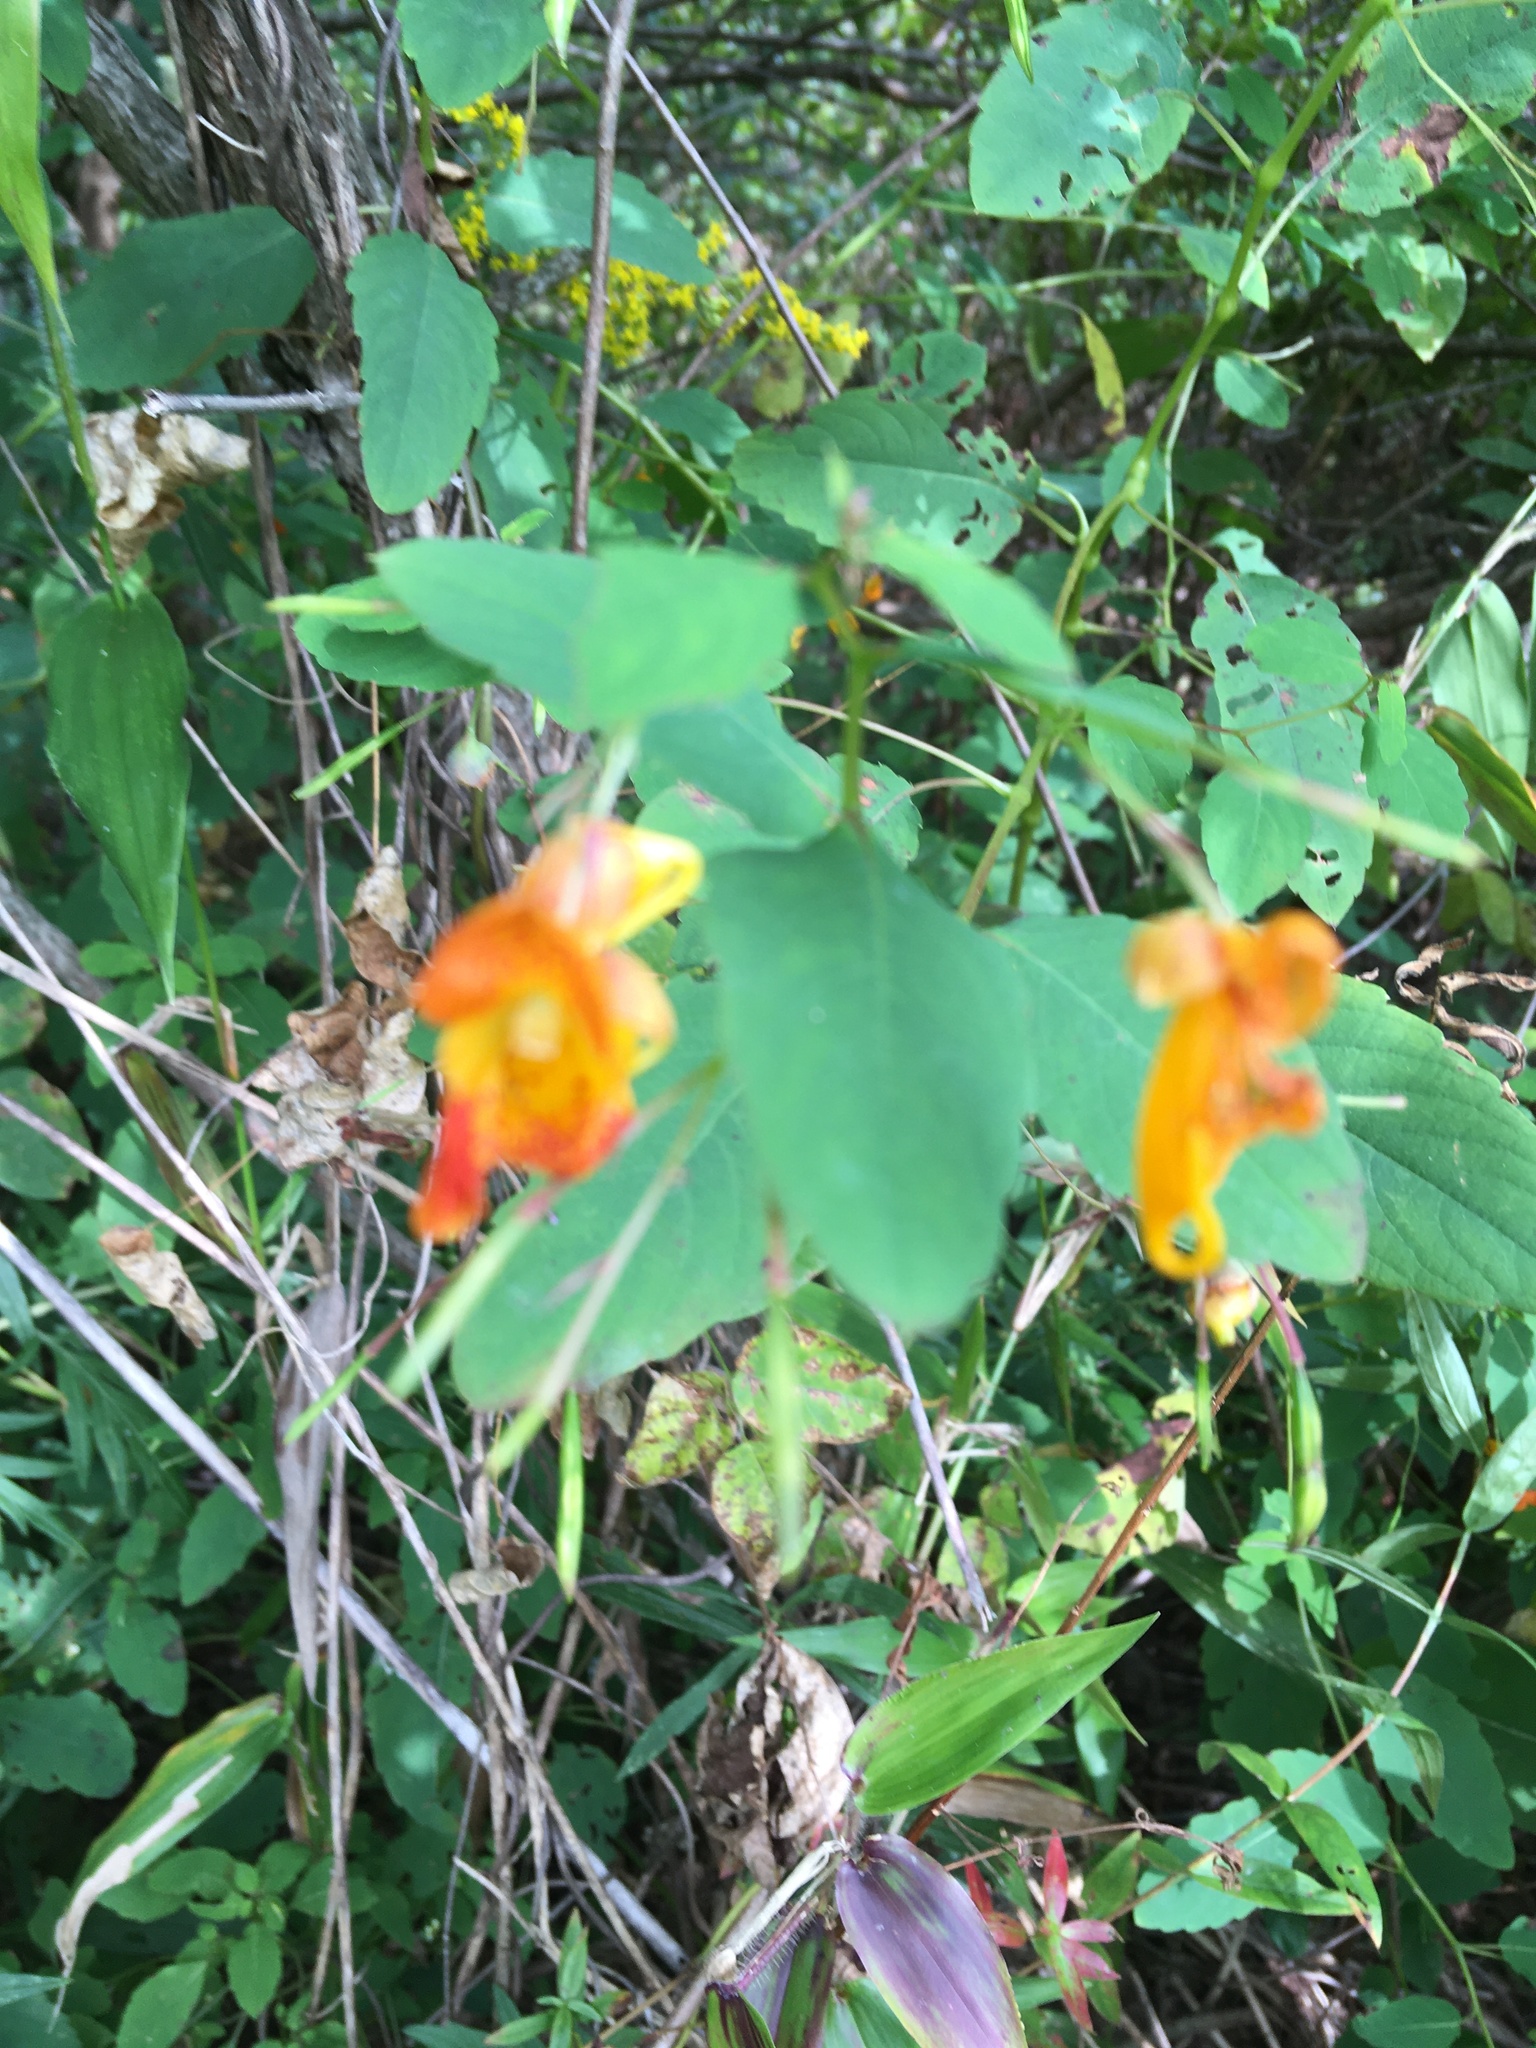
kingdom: Plantae
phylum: Tracheophyta
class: Magnoliopsida
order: Ericales
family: Balsaminaceae
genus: Impatiens
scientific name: Impatiens capensis
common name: Orange balsam
